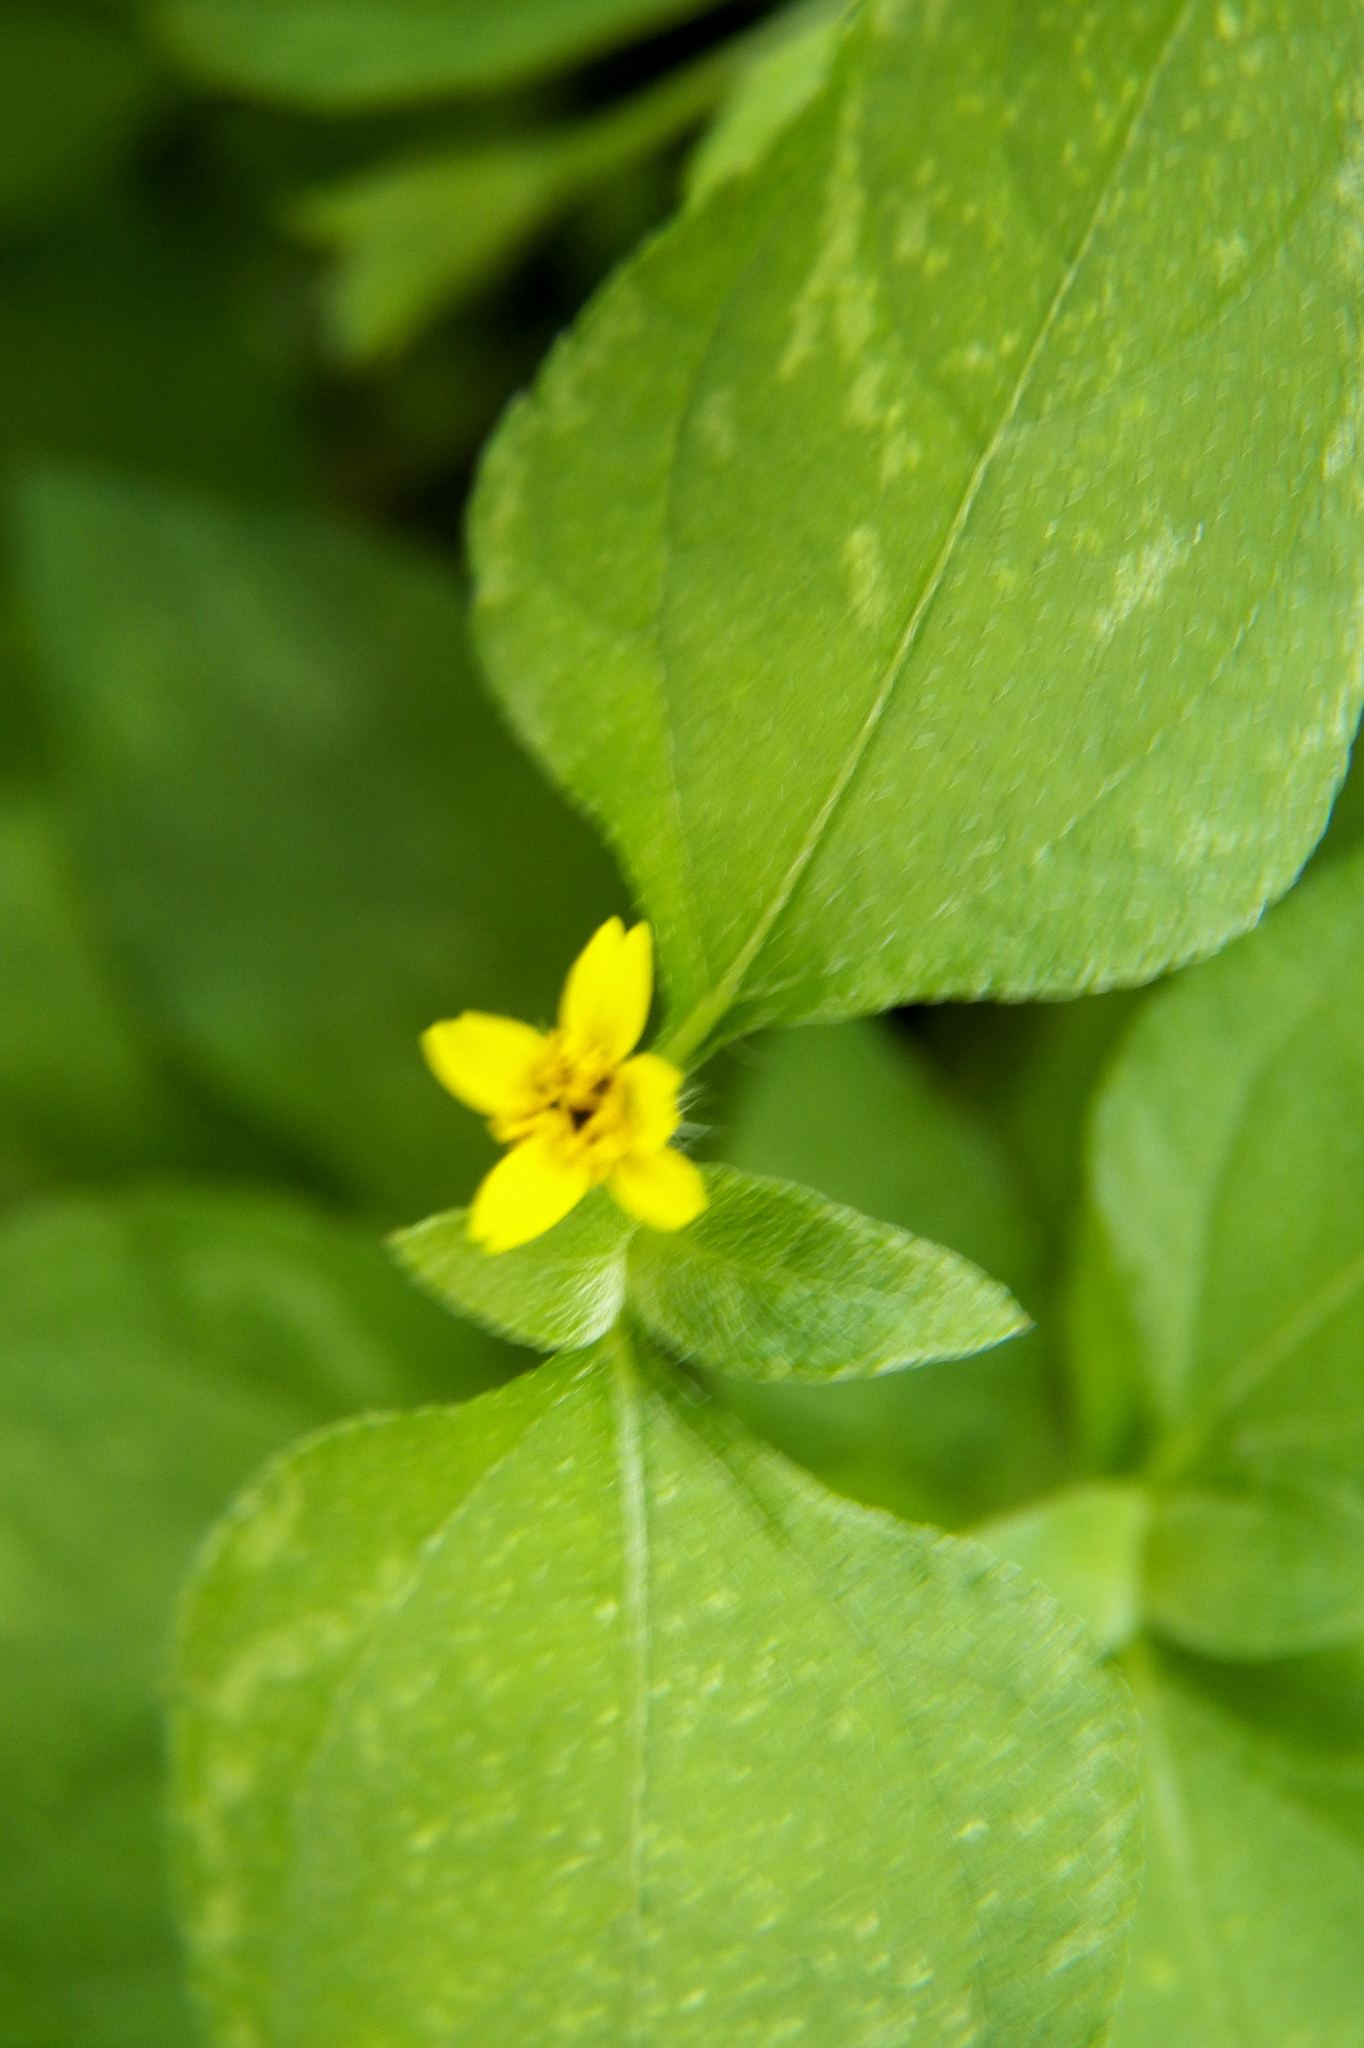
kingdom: Plantae
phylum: Tracheophyta
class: Magnoliopsida
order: Asterales
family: Asteraceae
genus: Calyptocarpus
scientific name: Calyptocarpus vialis
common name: Straggler daisy
